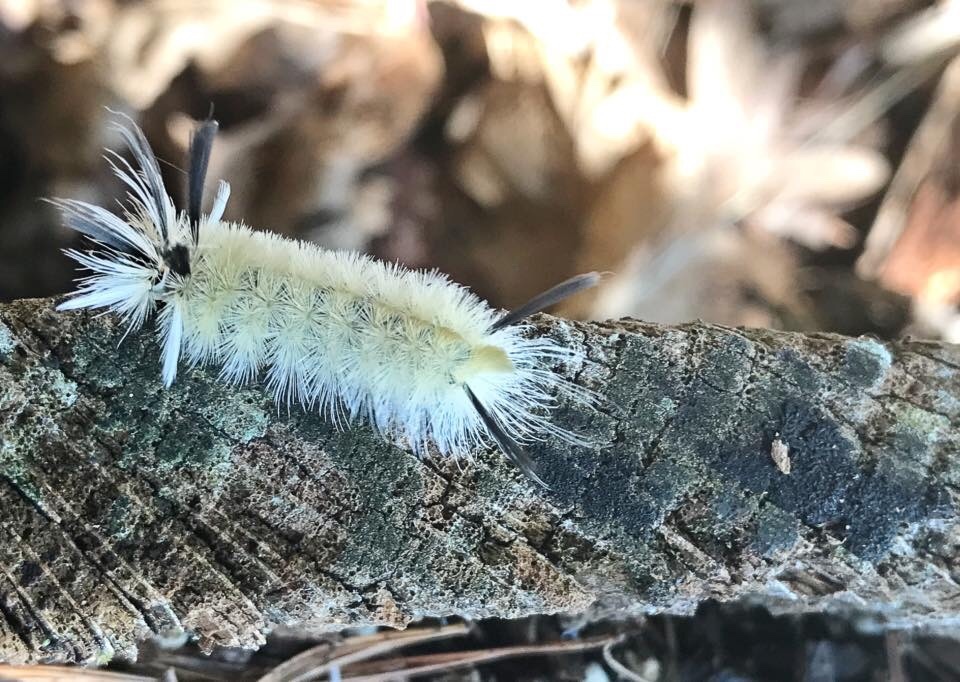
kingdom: Animalia
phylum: Arthropoda
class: Insecta
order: Lepidoptera
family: Erebidae
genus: Halysidota
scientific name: Halysidota tessellaris
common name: Banded tussock moth
